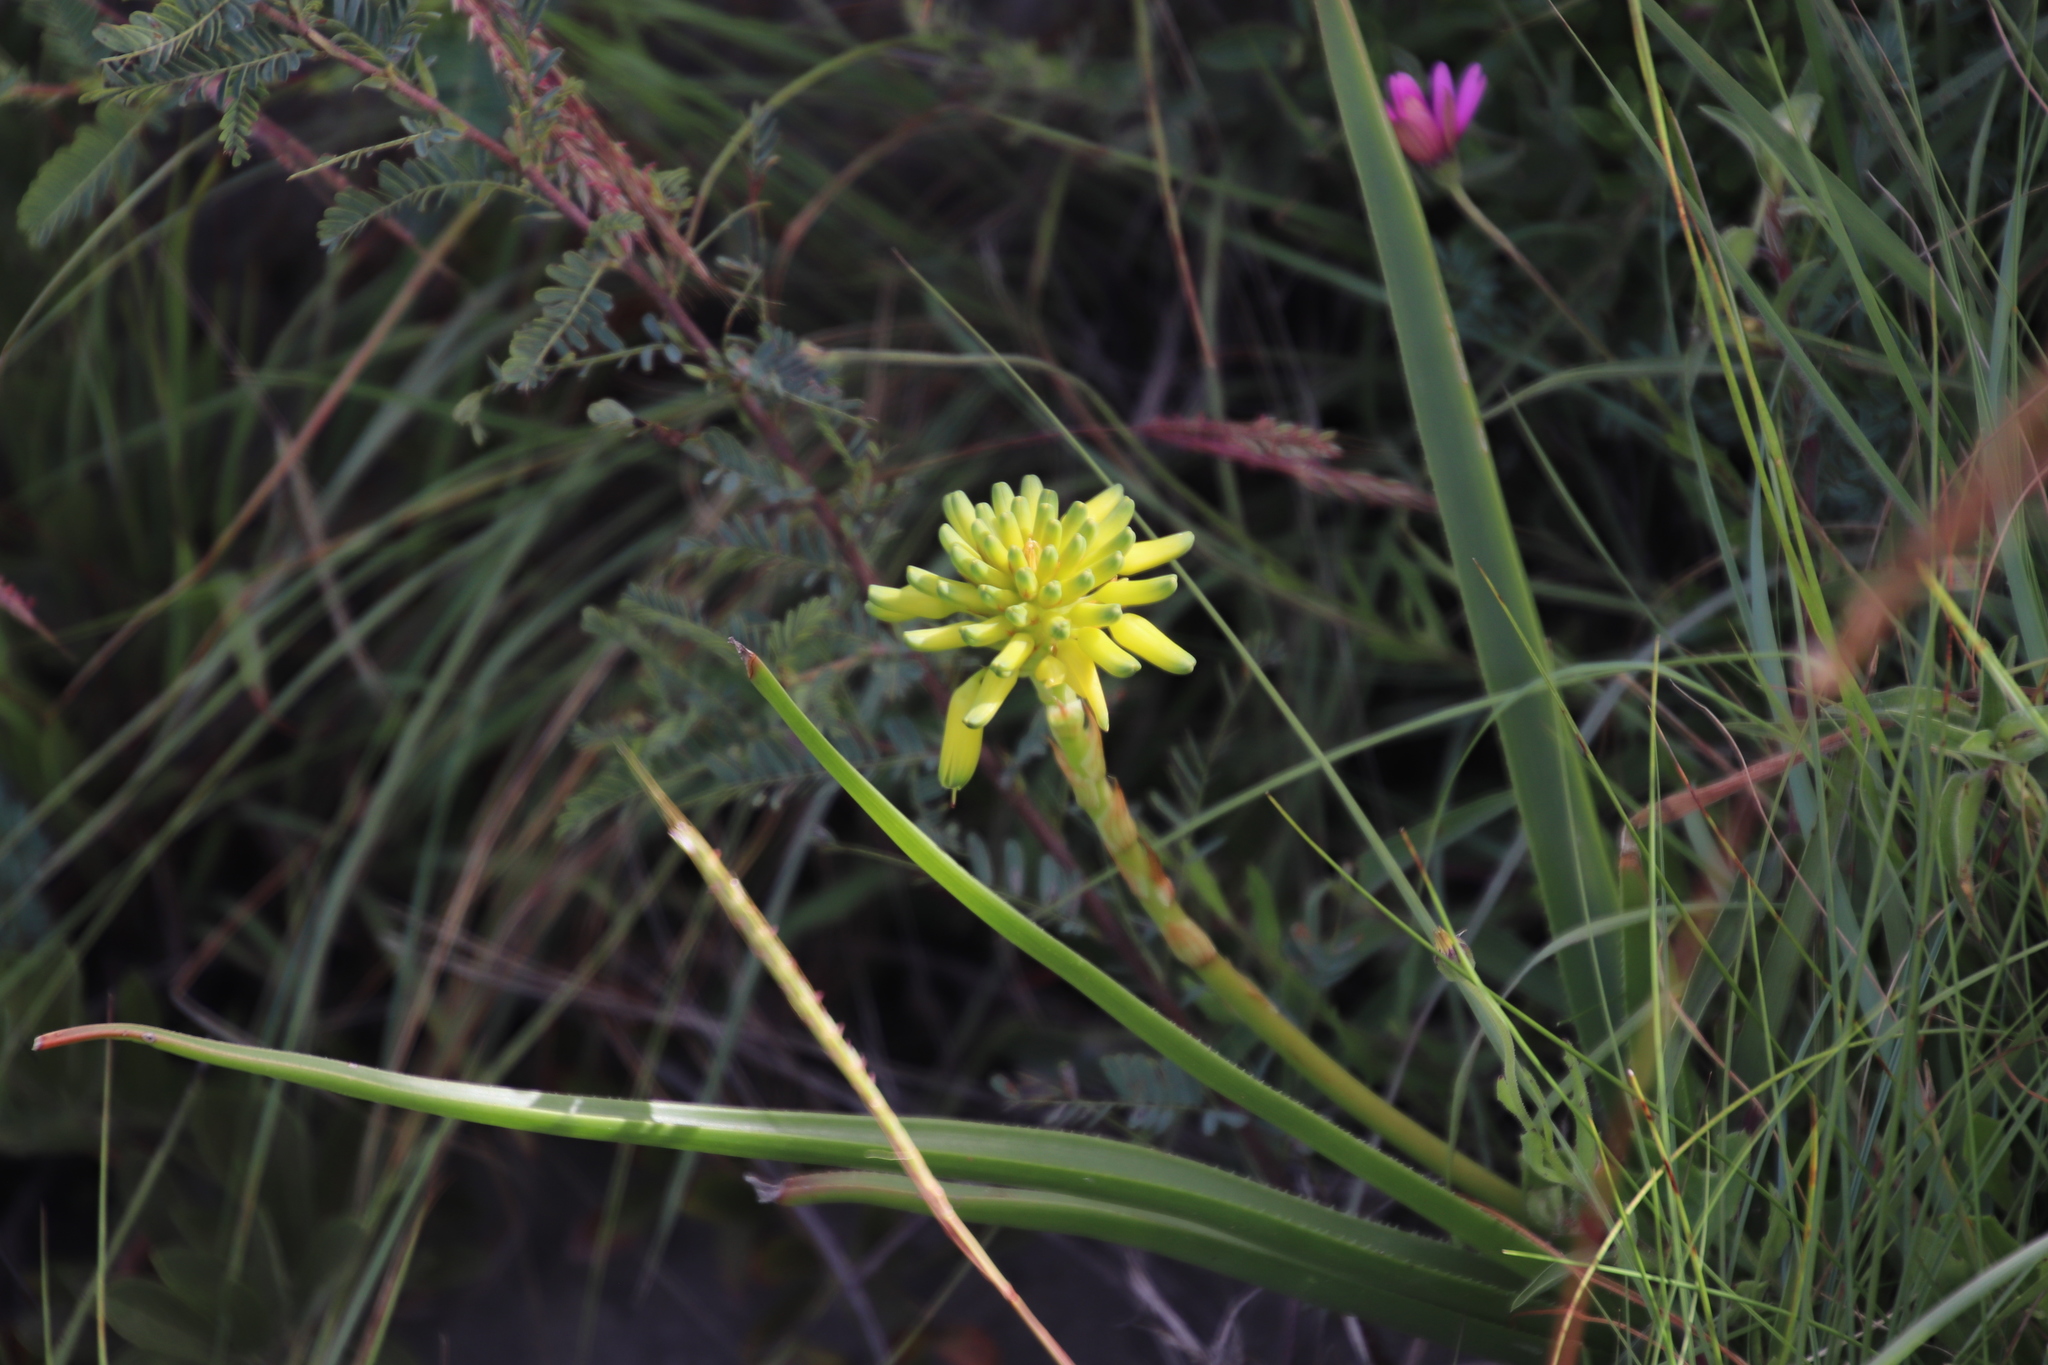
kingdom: Plantae
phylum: Tracheophyta
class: Liliopsida
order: Asparagales
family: Asphodelaceae
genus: Aloe
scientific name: Aloe craibii
